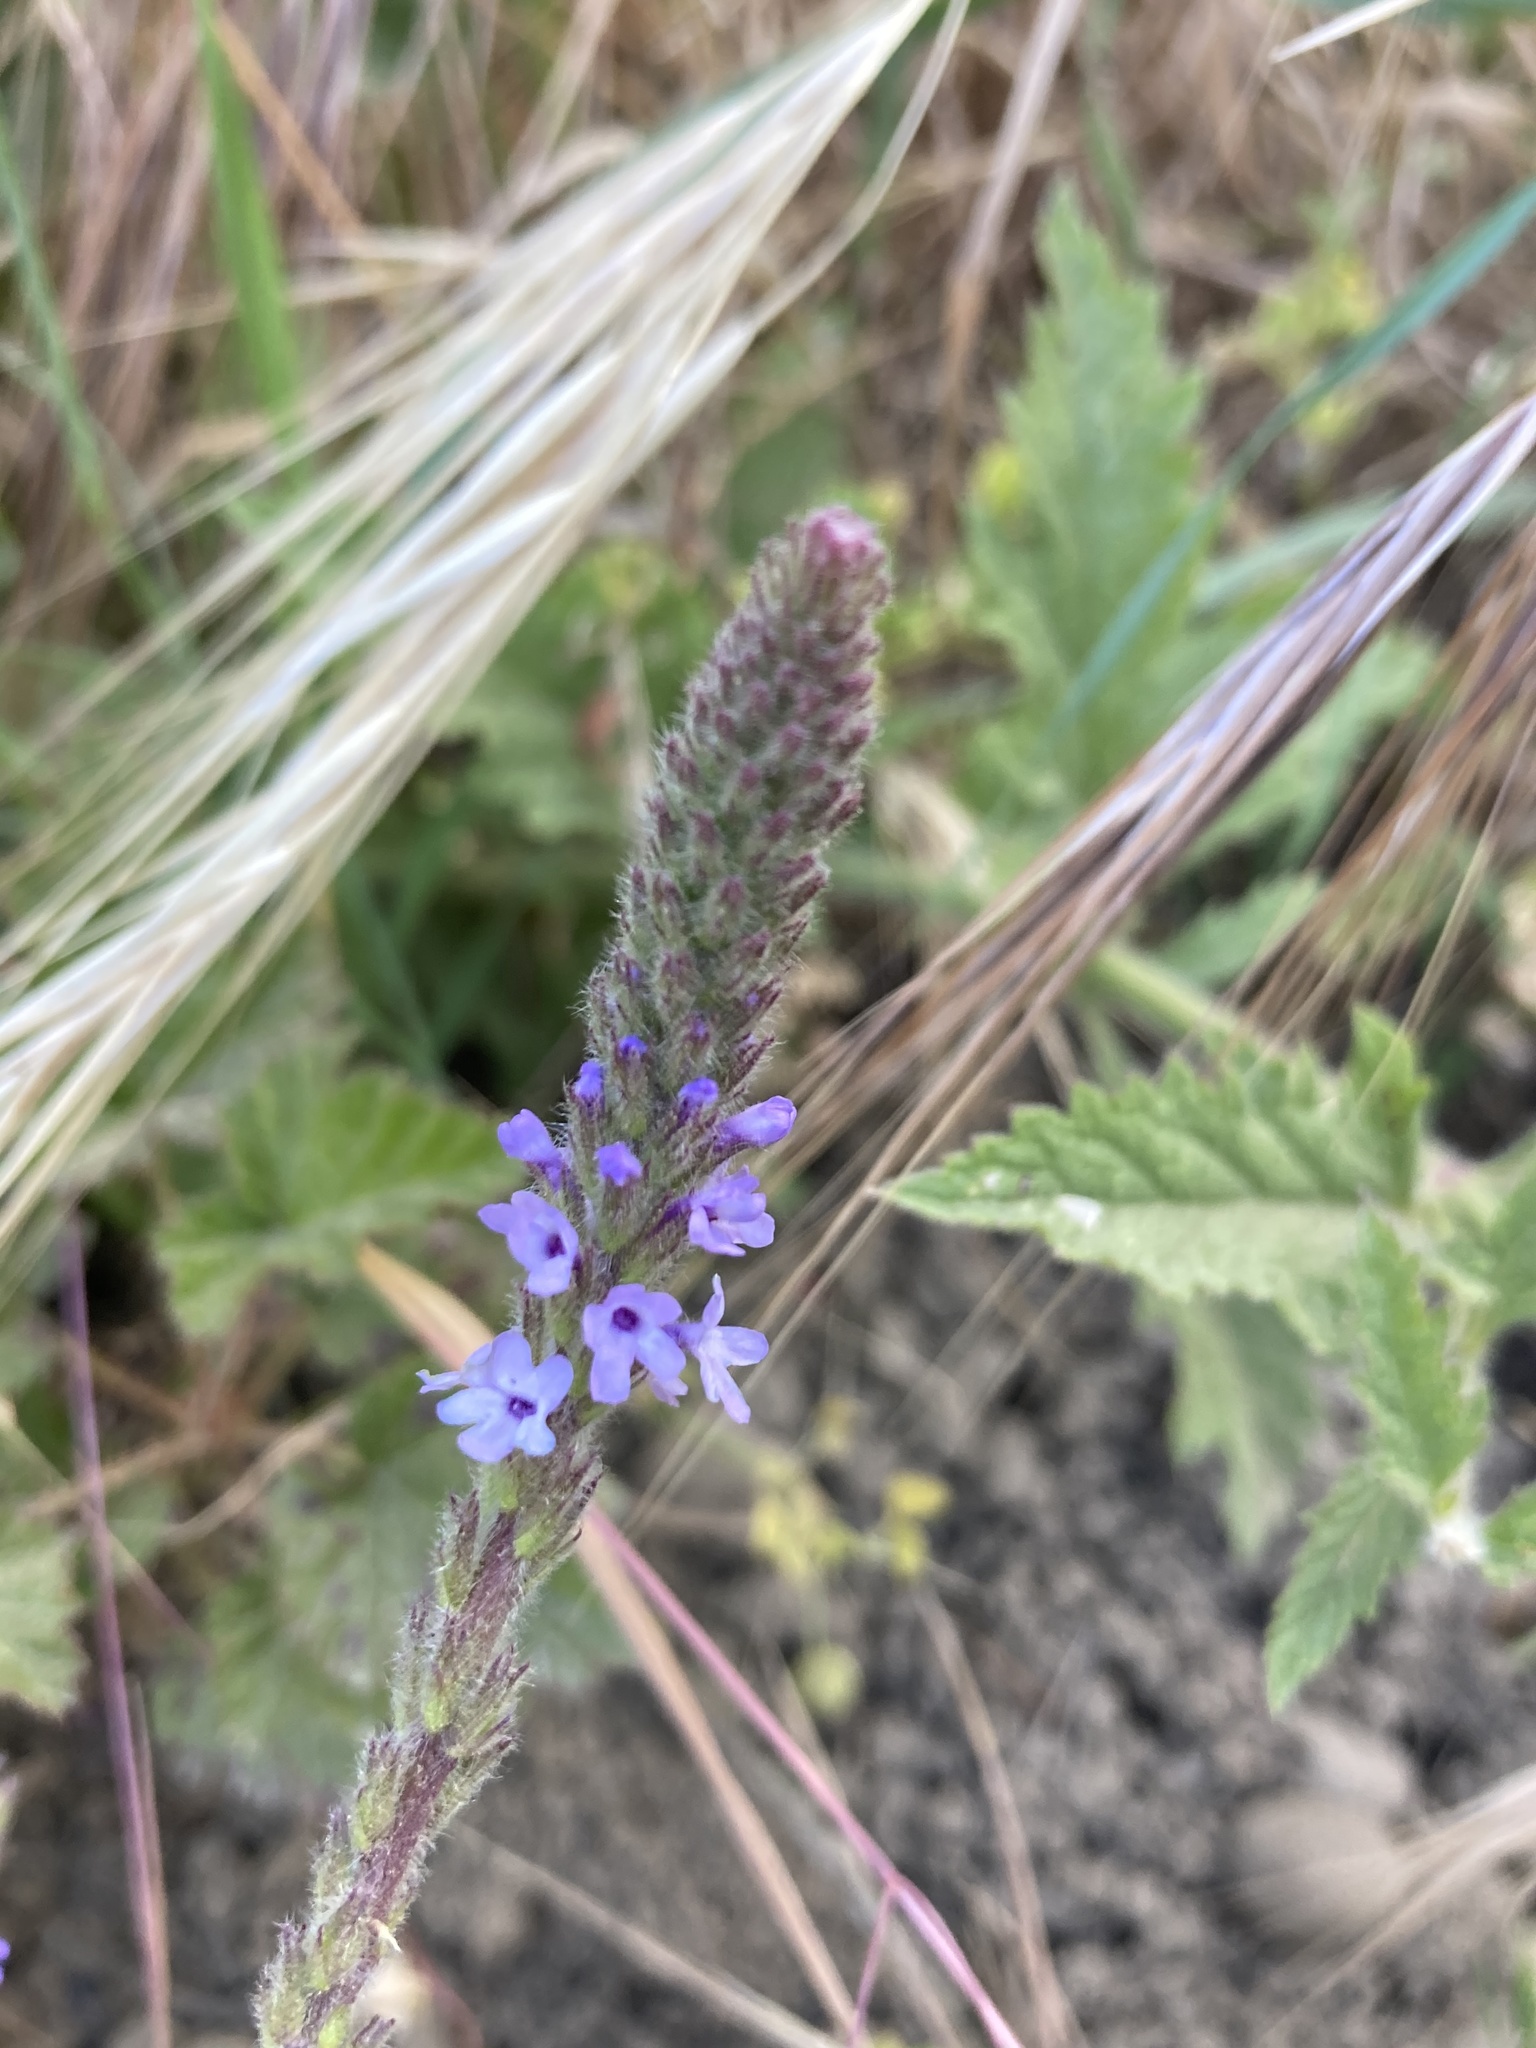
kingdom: Plantae
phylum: Tracheophyta
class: Magnoliopsida
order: Lamiales
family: Verbenaceae
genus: Verbena
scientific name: Verbena lasiostachys
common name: Vervain
